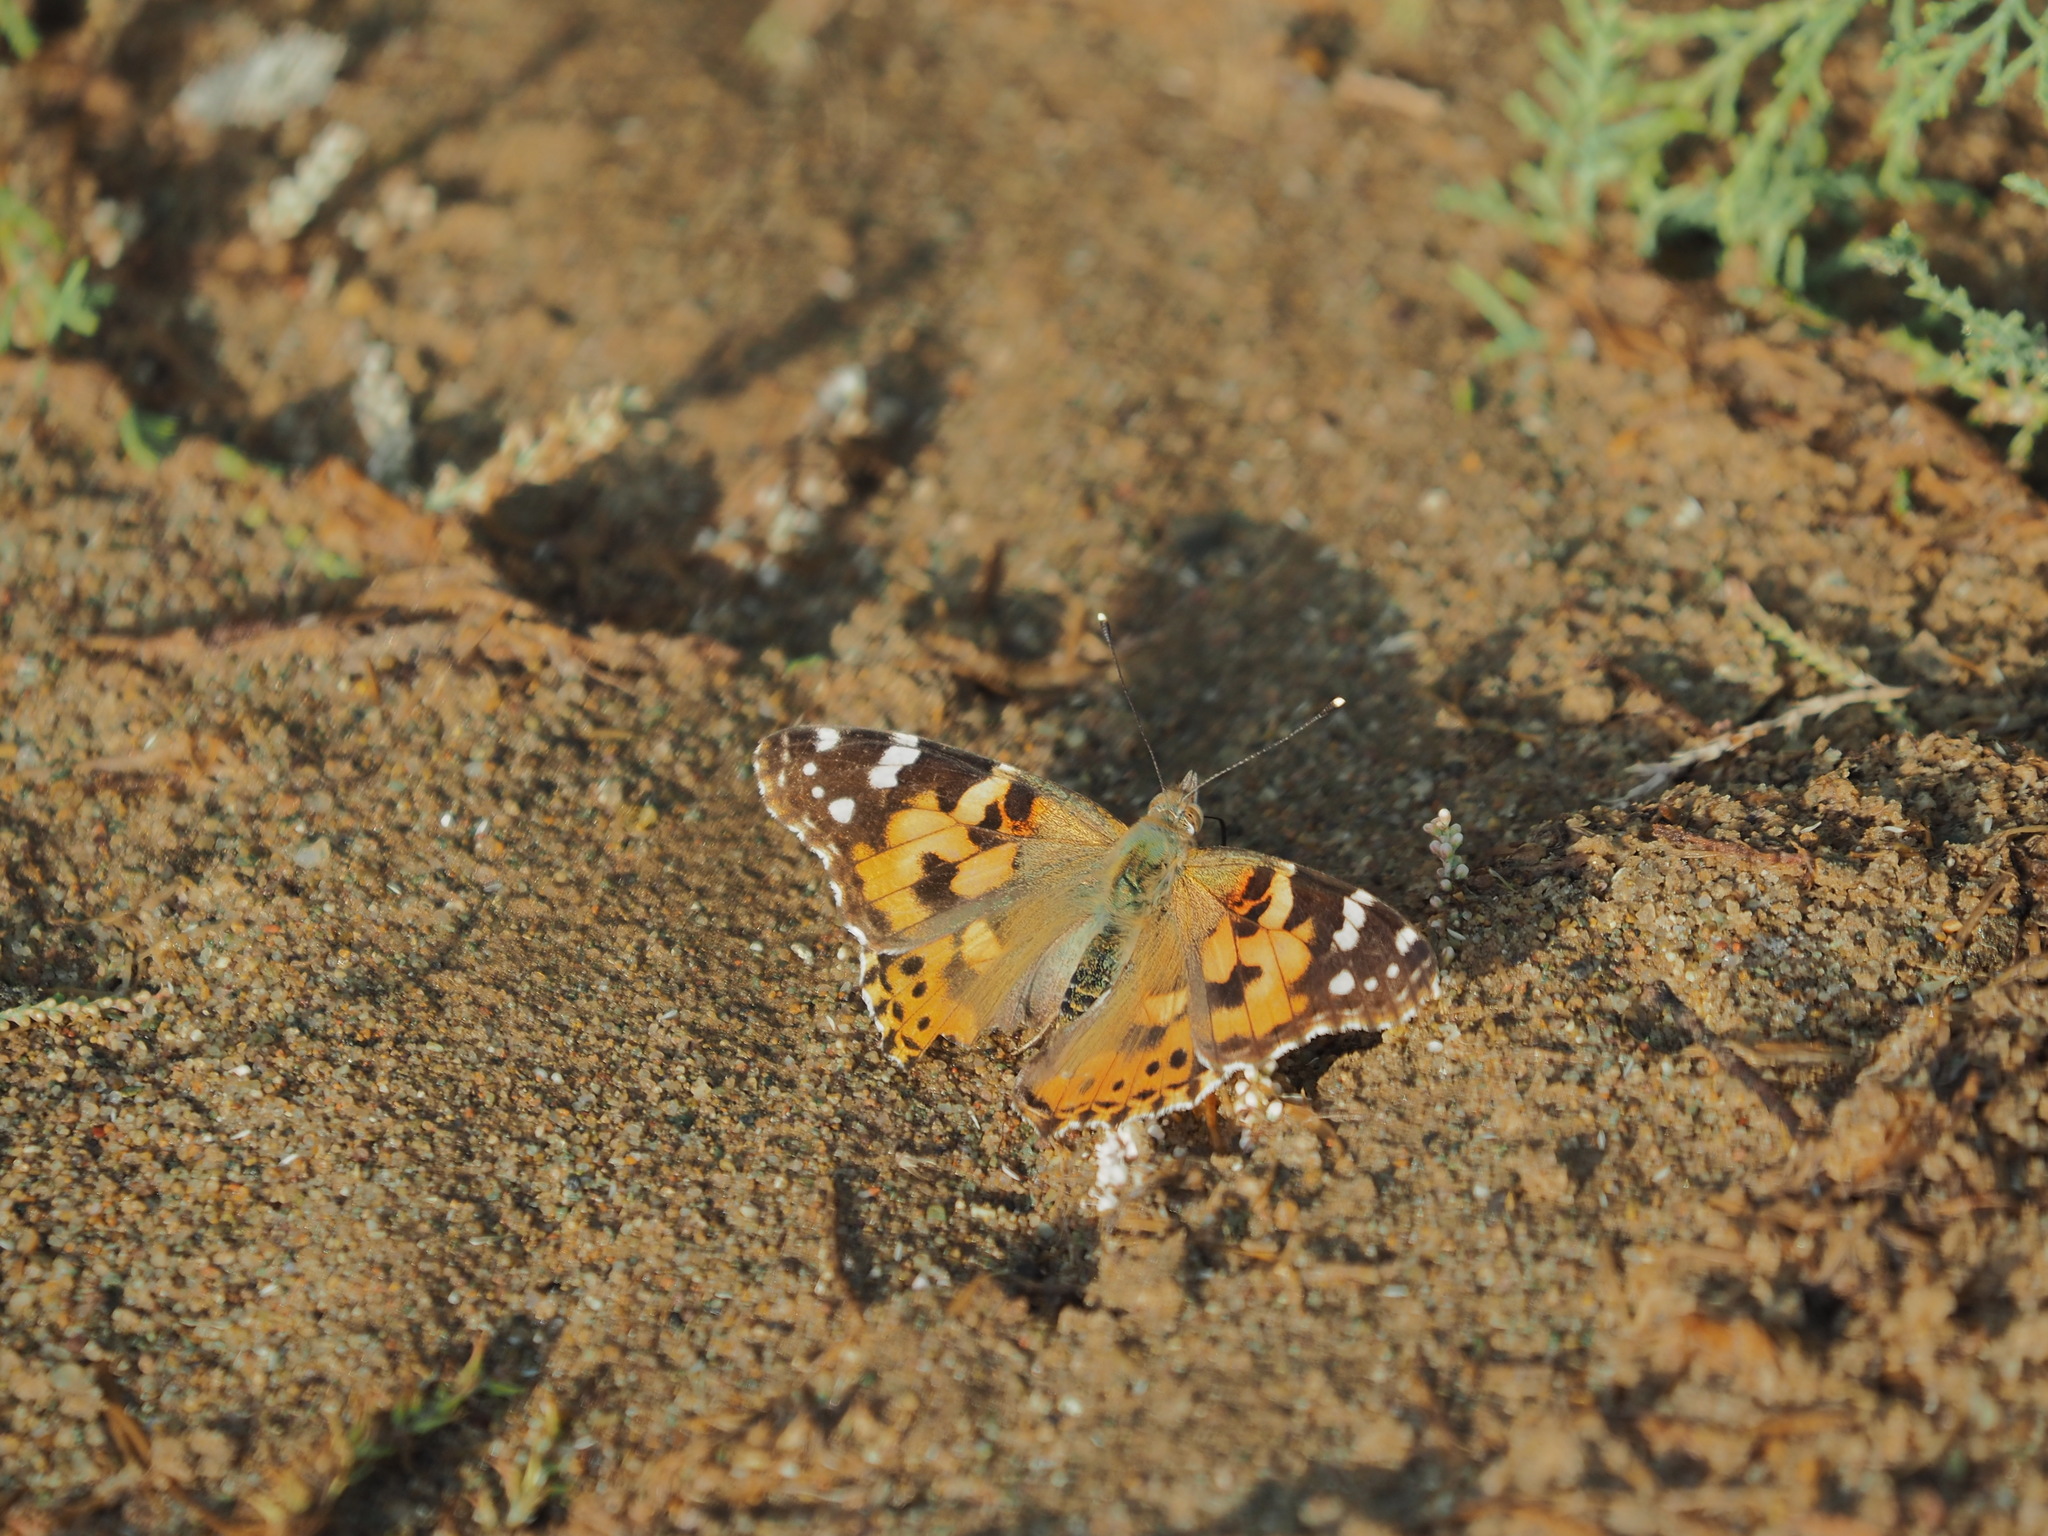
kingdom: Animalia
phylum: Arthropoda
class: Insecta
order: Lepidoptera
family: Nymphalidae
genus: Vanessa
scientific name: Vanessa cardui
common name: Painted lady
